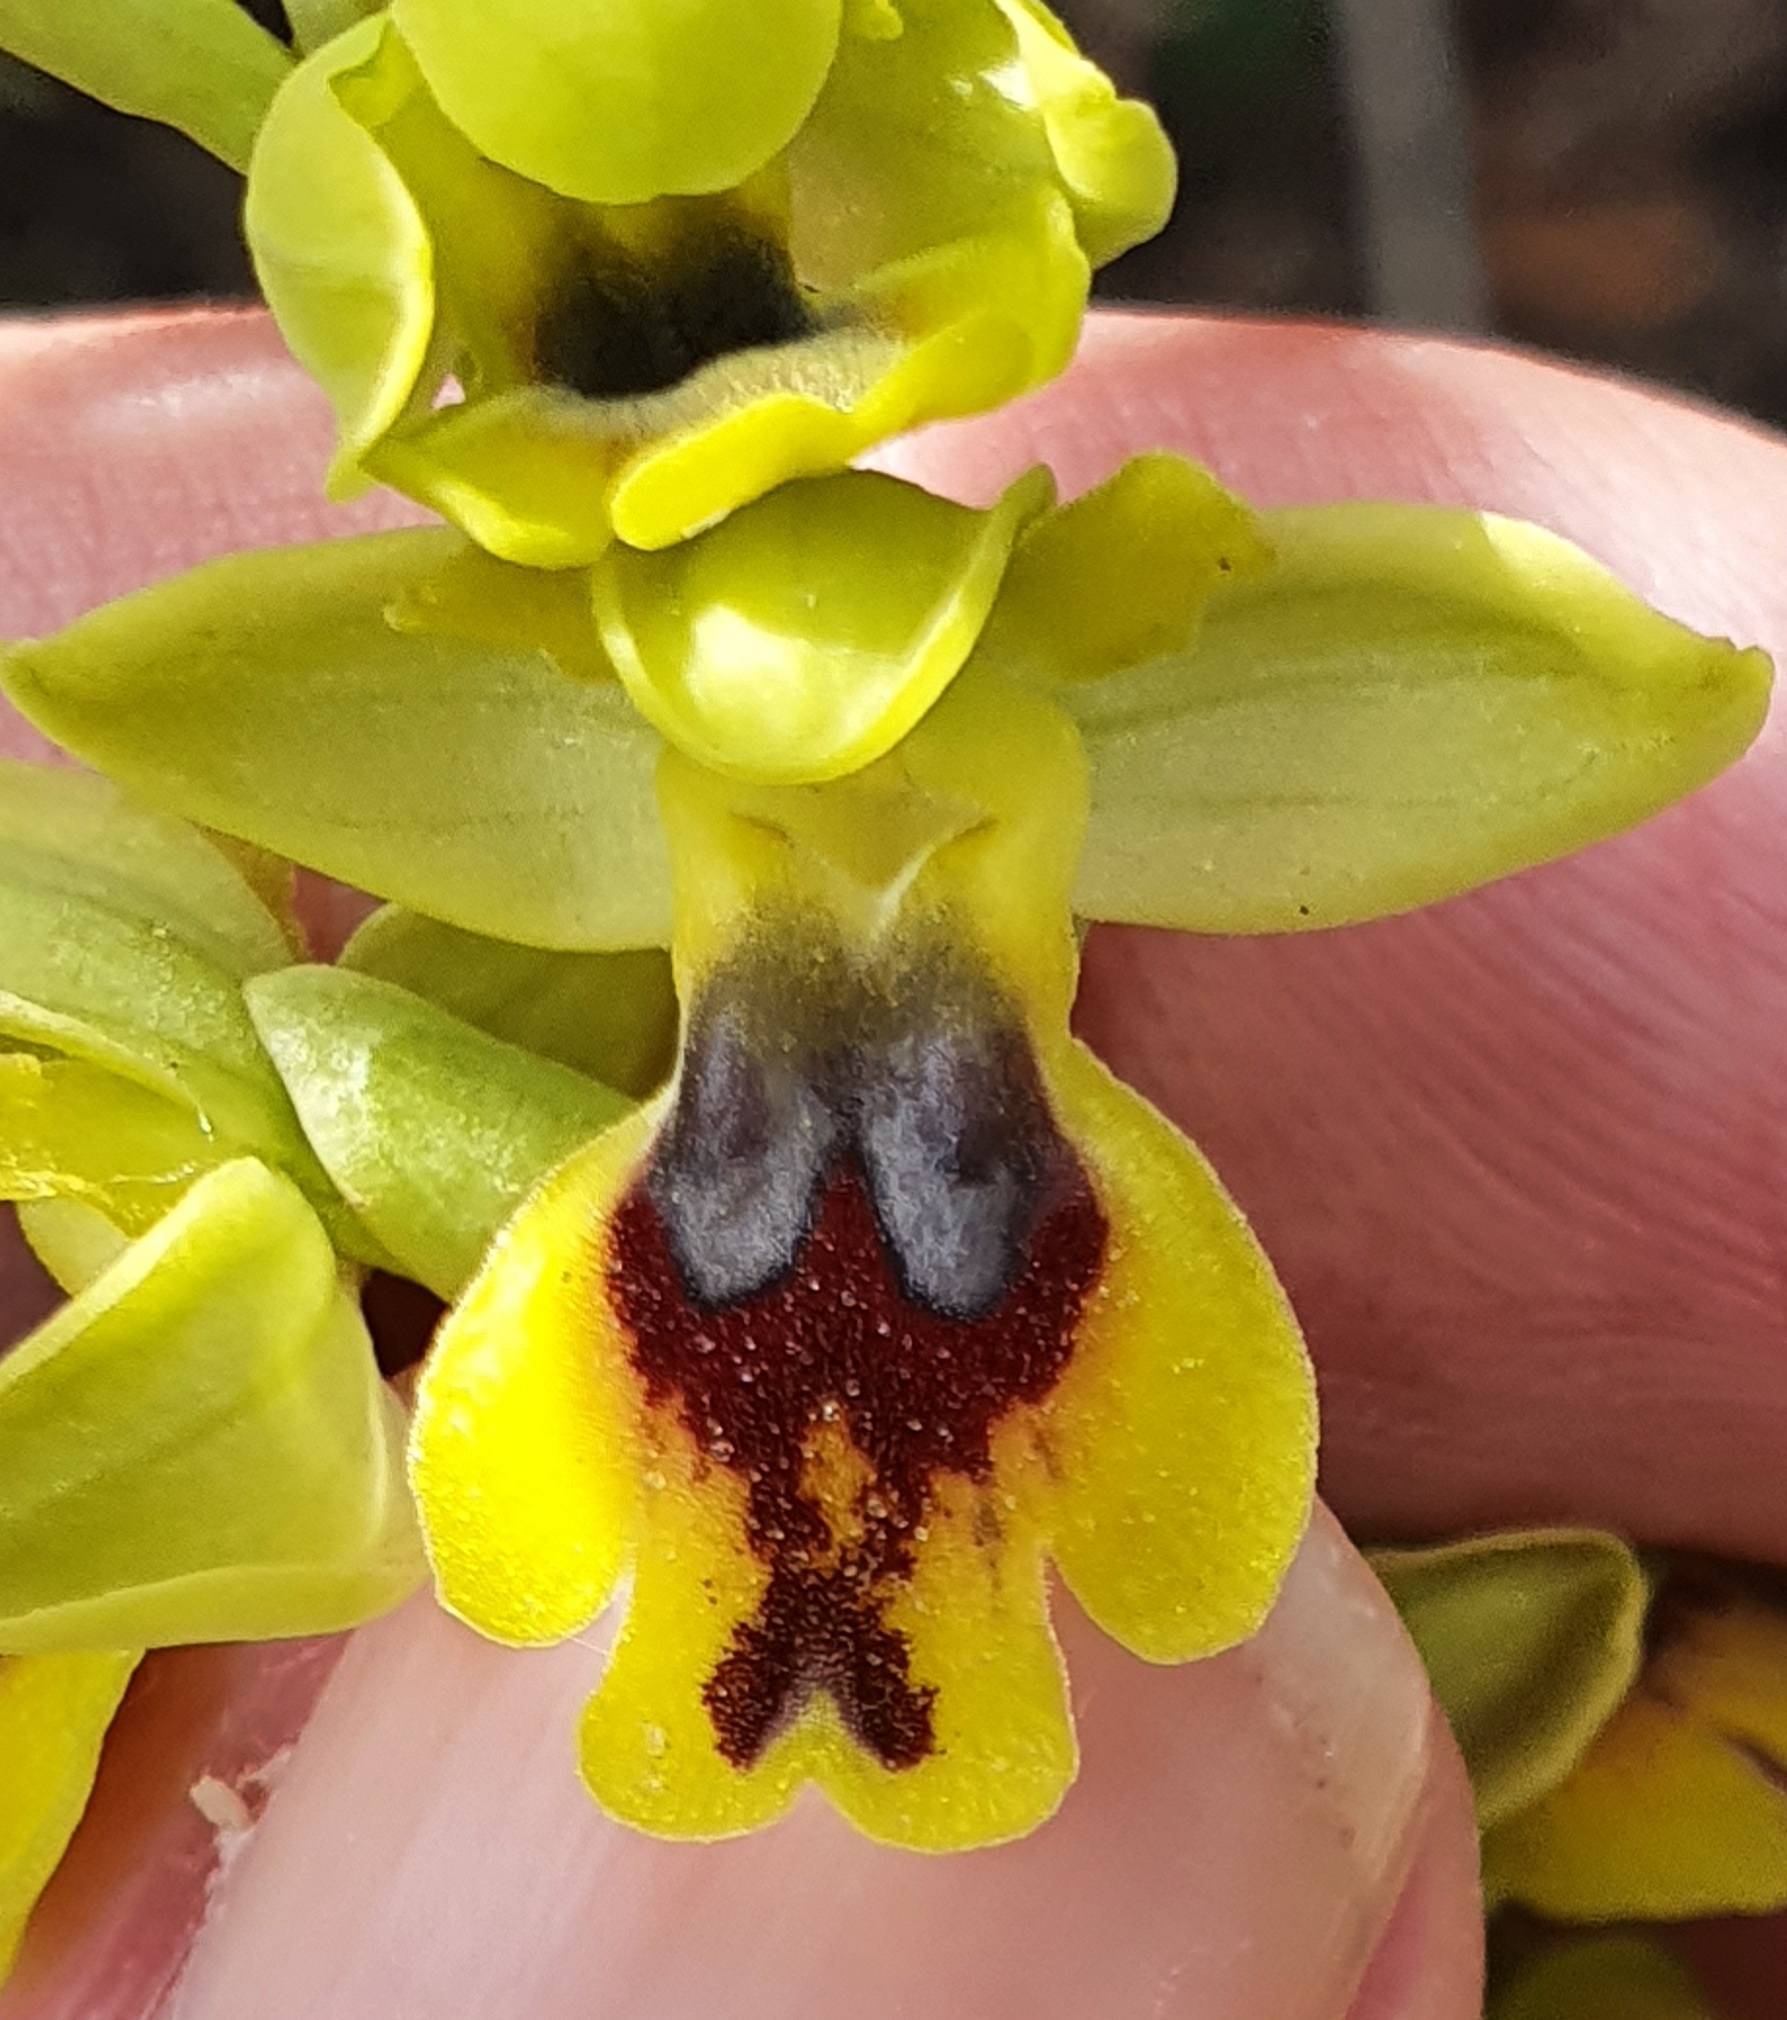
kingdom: Plantae
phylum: Tracheophyta
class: Liliopsida
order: Asparagales
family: Orchidaceae
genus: Ophrys
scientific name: Ophrys battandieri
